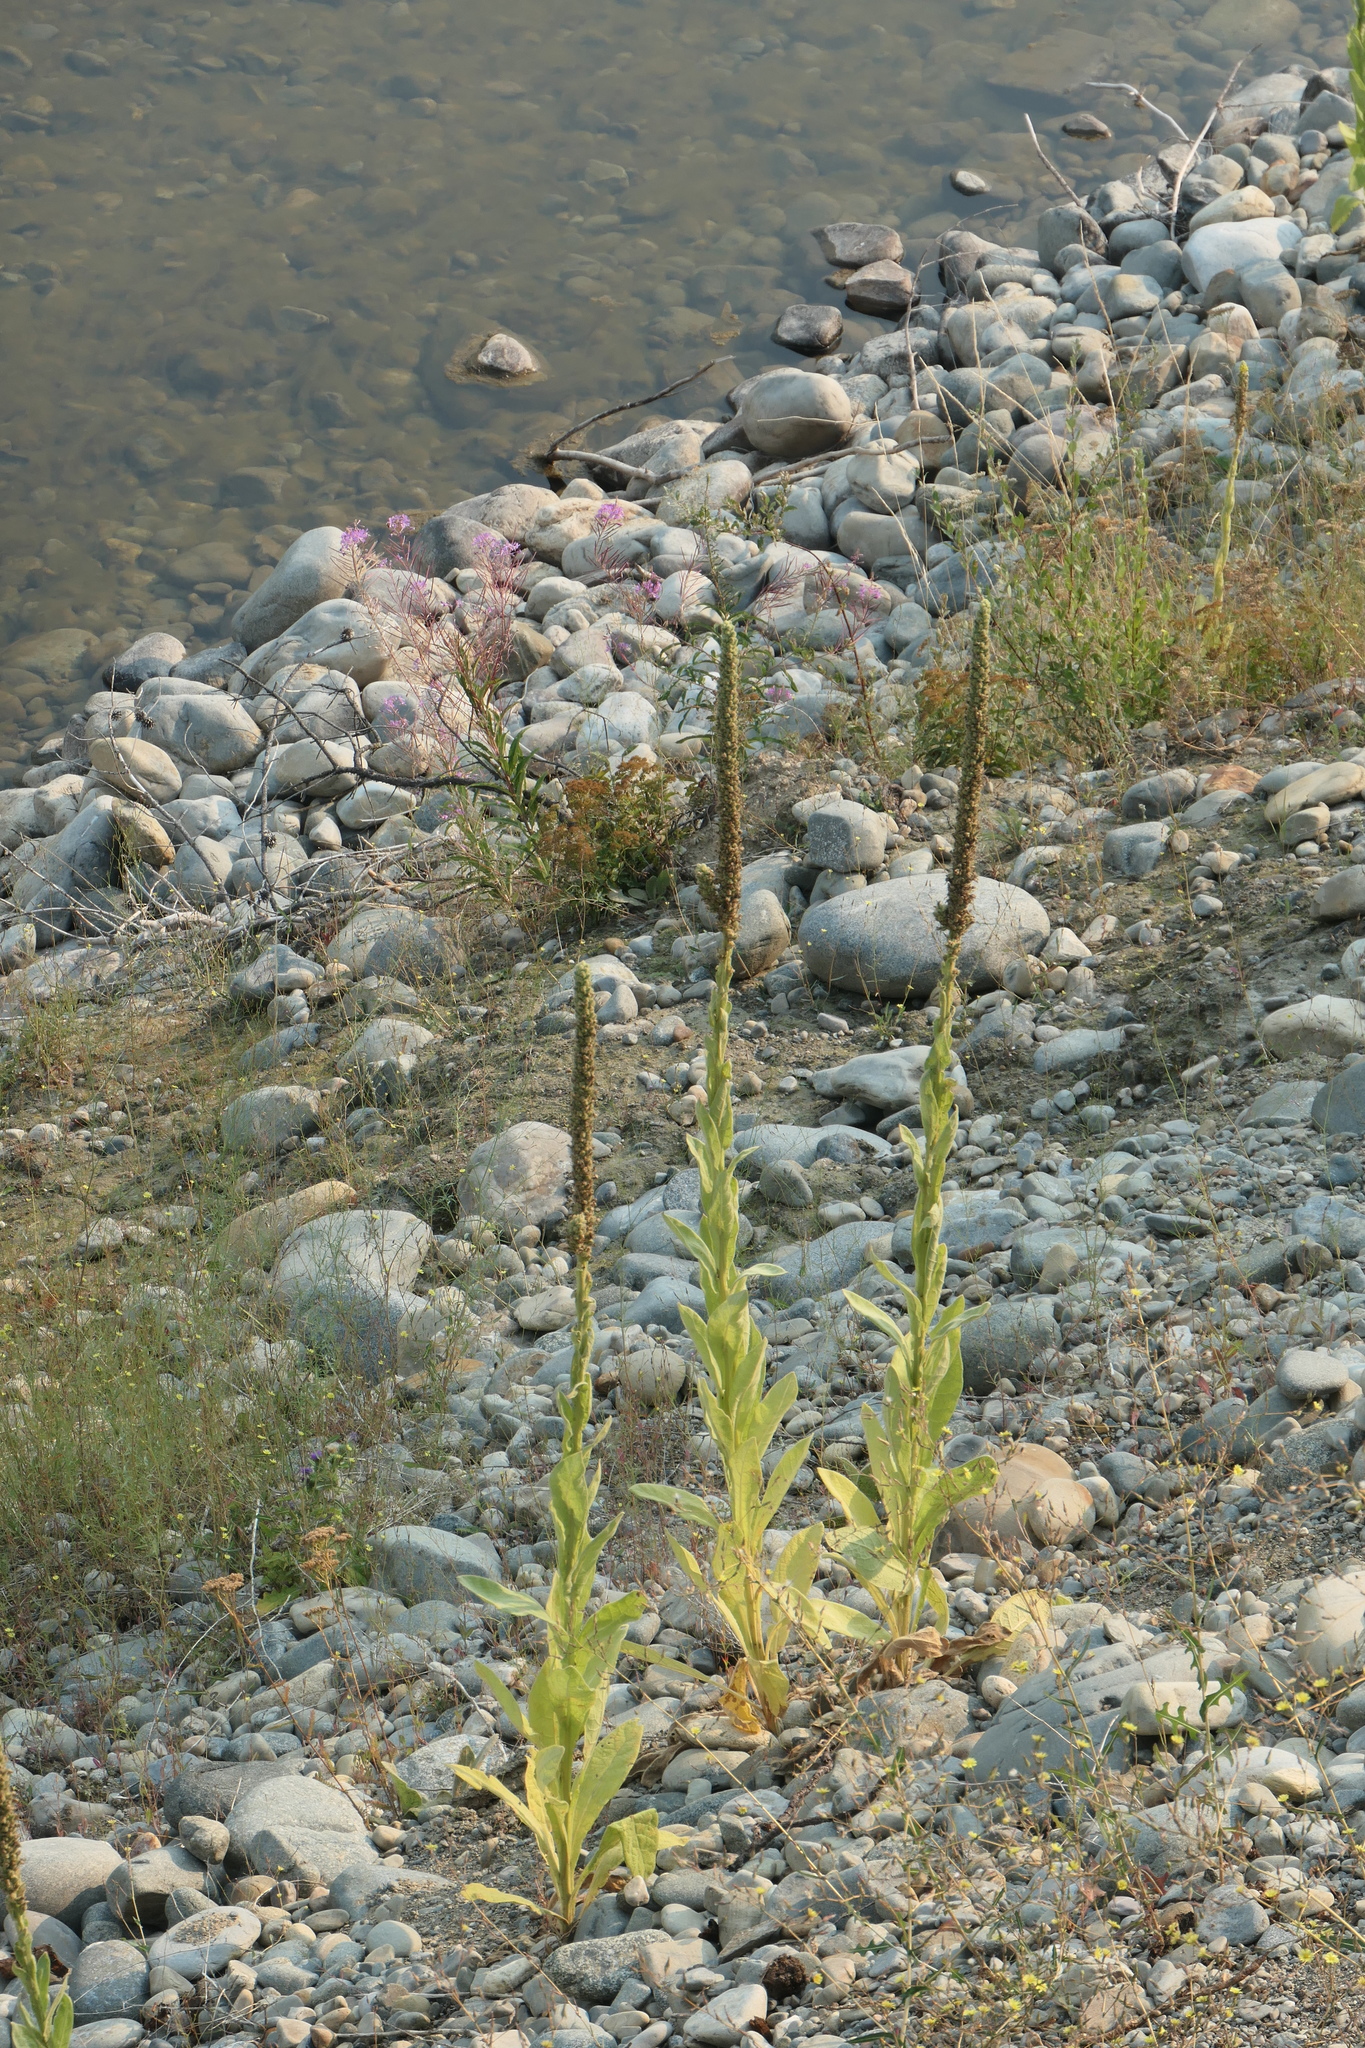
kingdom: Plantae
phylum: Tracheophyta
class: Magnoliopsida
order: Lamiales
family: Scrophulariaceae
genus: Verbascum
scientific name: Verbascum thapsus
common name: Common mullein
